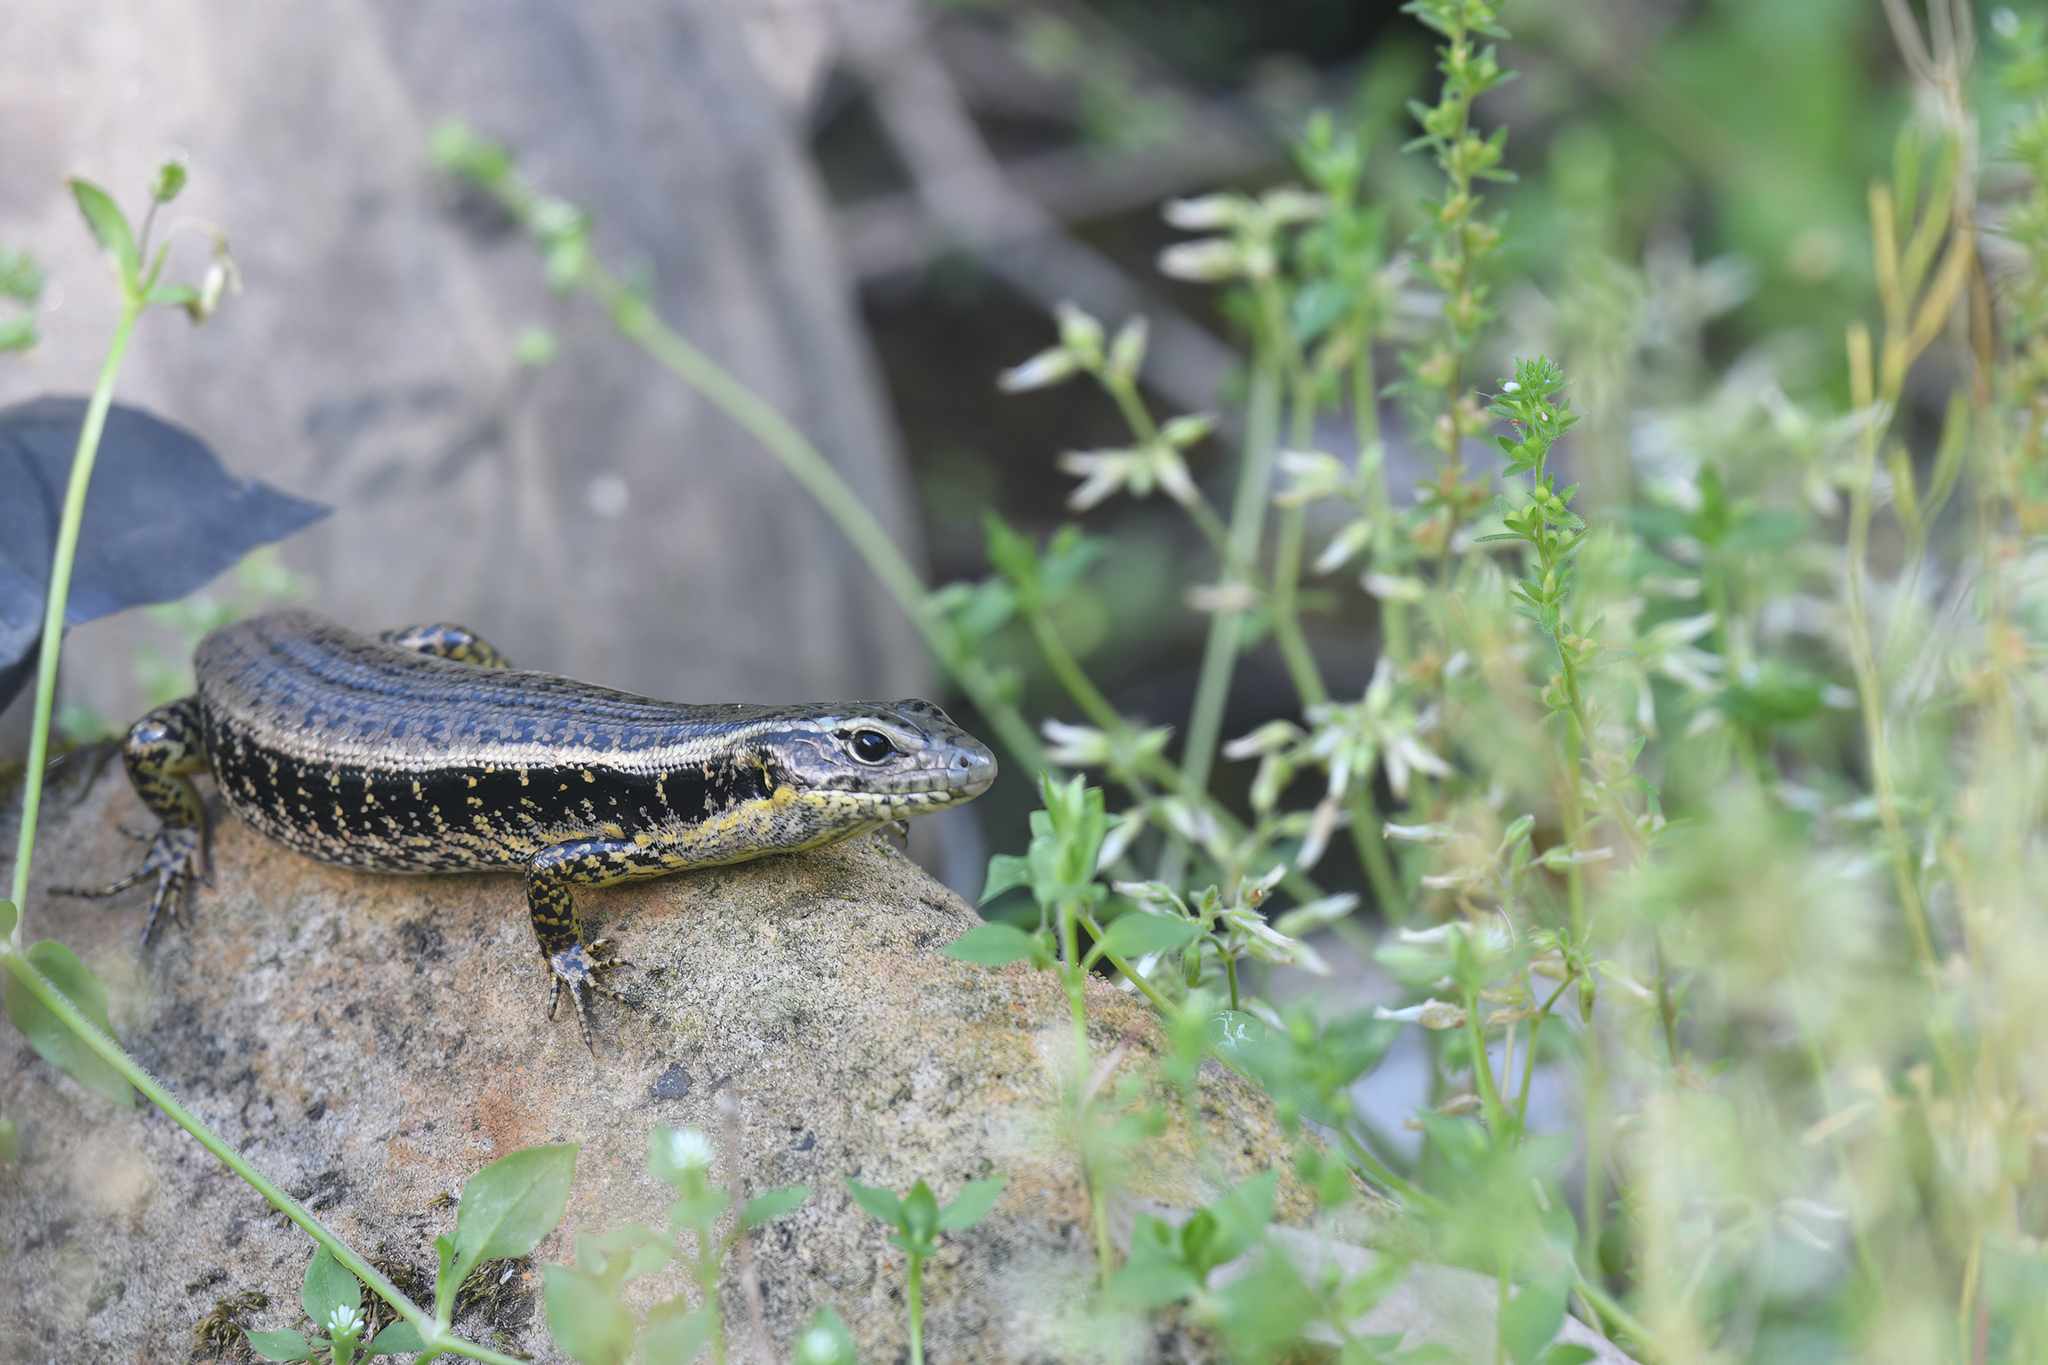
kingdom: Animalia
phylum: Chordata
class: Squamata
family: Scincidae
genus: Eulamprus
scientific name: Eulamprus quoyii
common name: Eastern water skink
